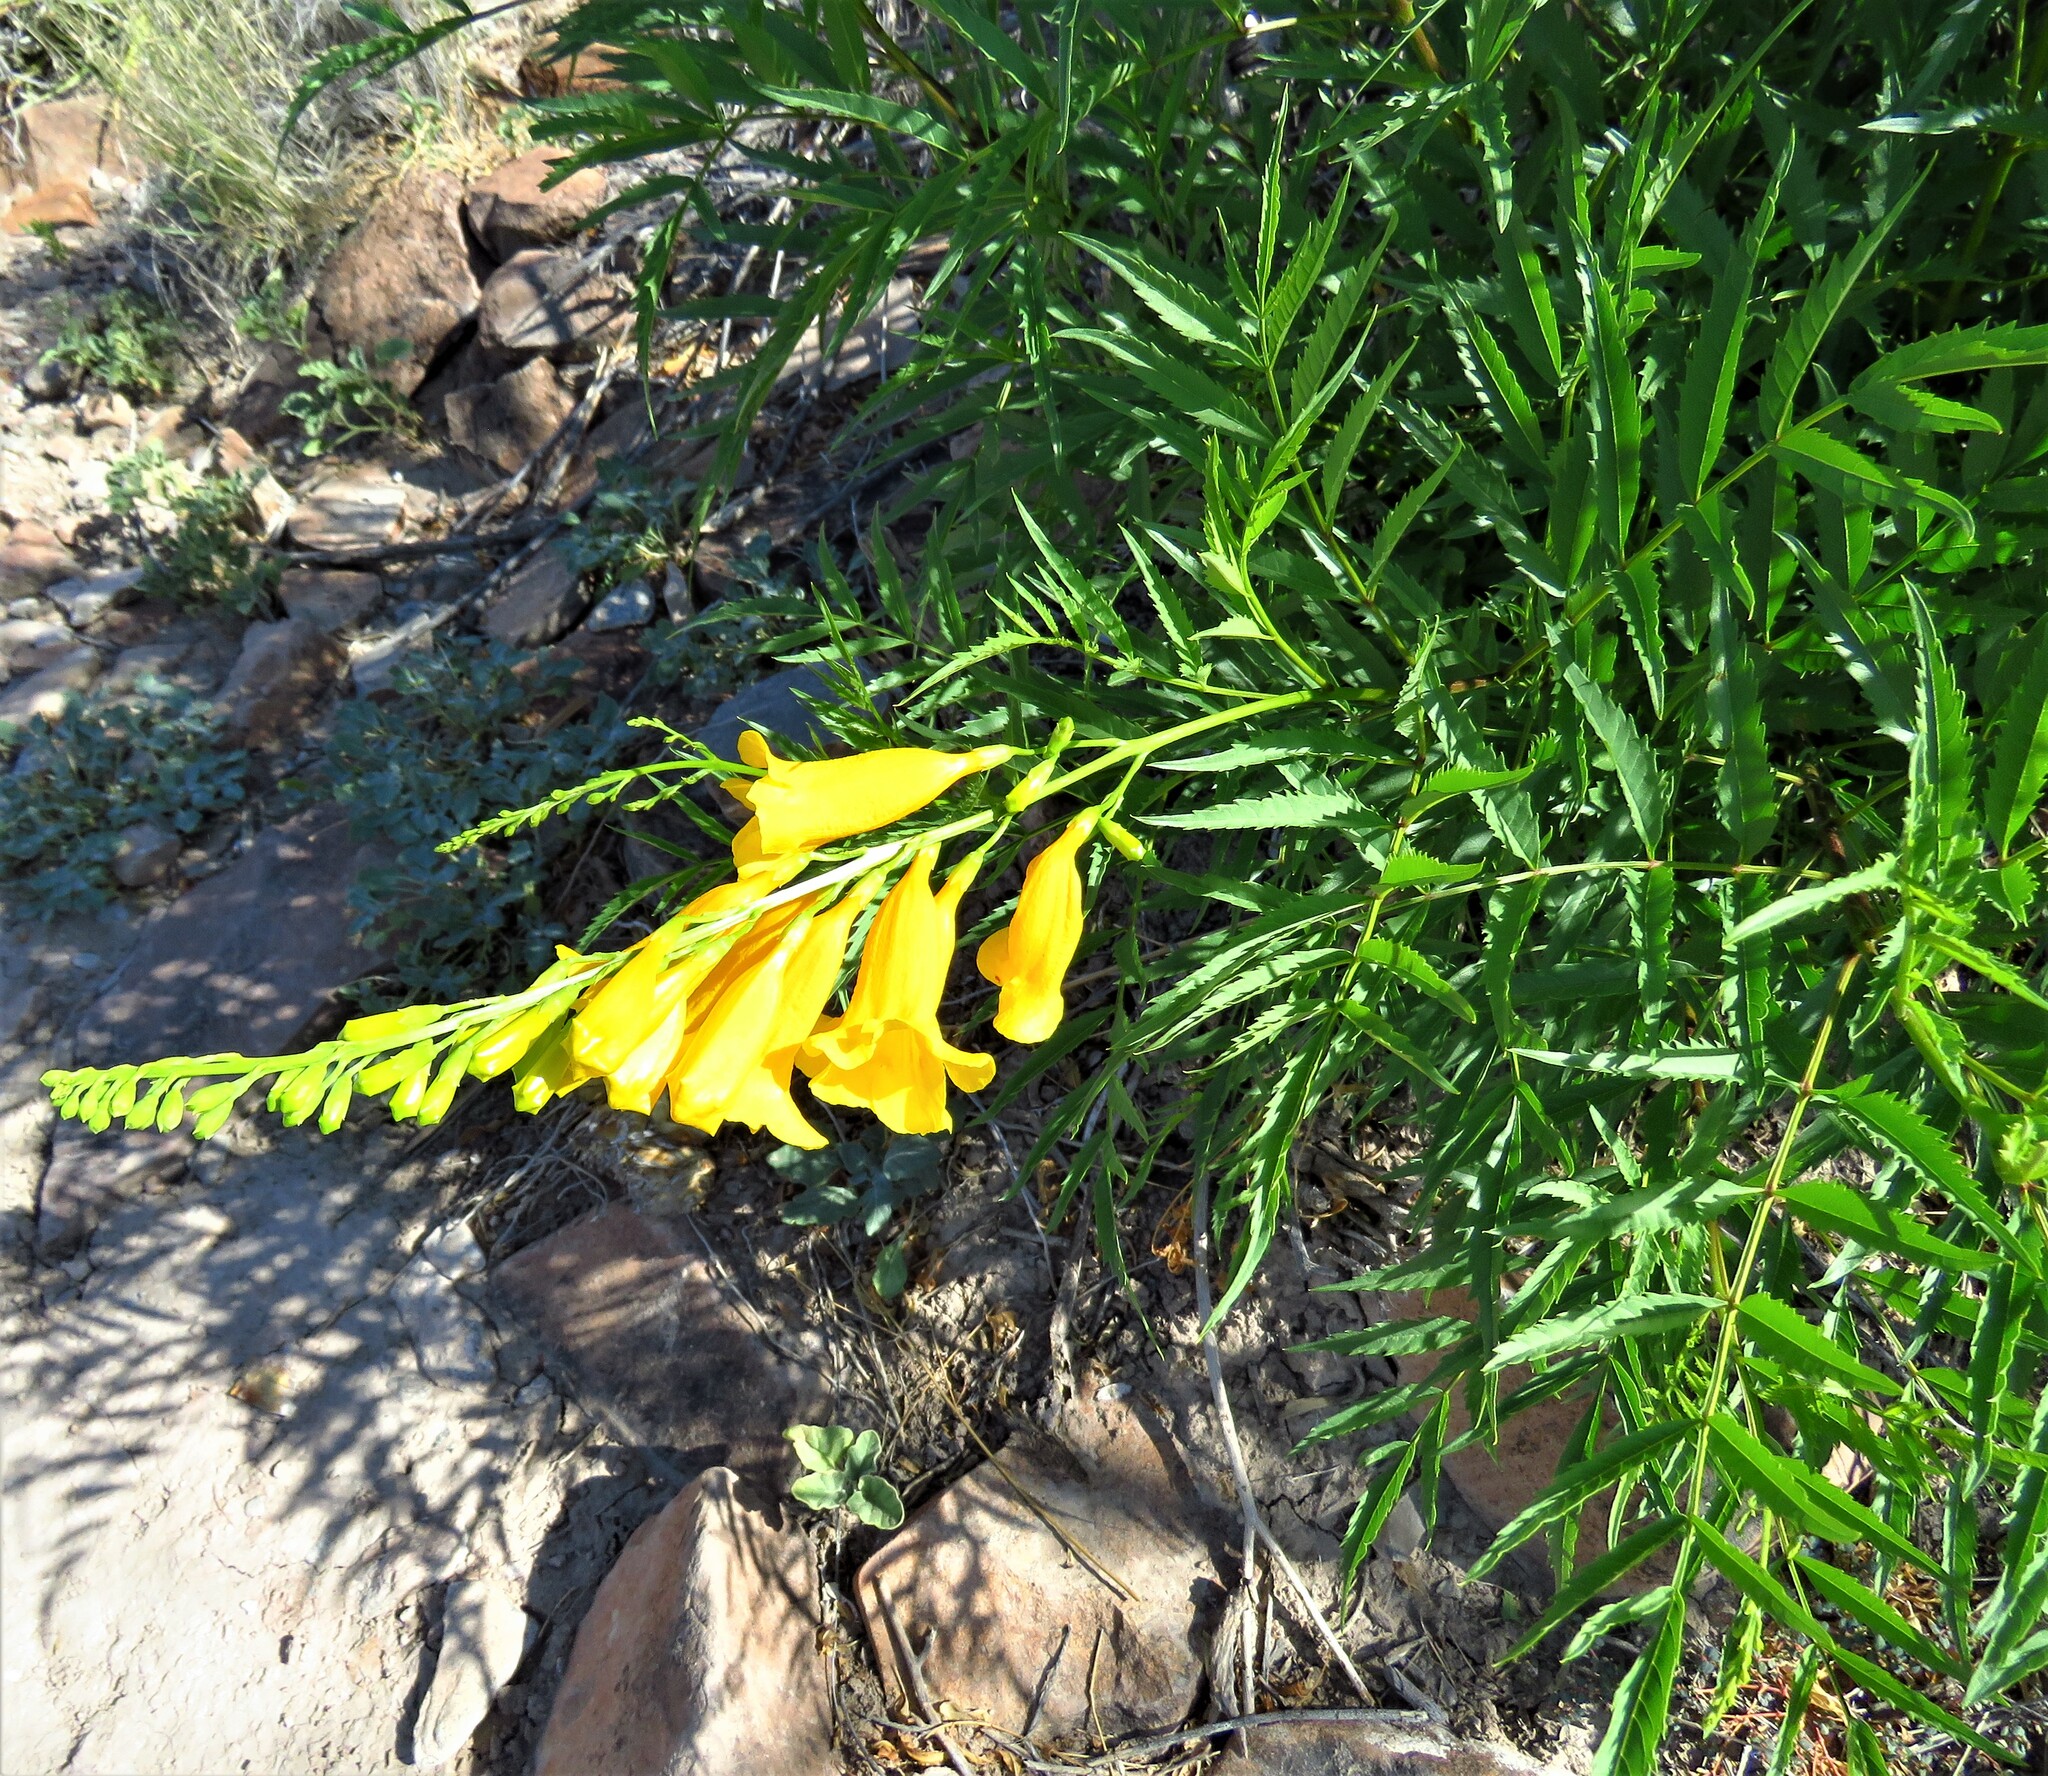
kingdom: Plantae
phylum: Tracheophyta
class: Magnoliopsida
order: Lamiales
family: Bignoniaceae
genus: Tecoma
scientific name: Tecoma stans
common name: Yellow trumpetbush
